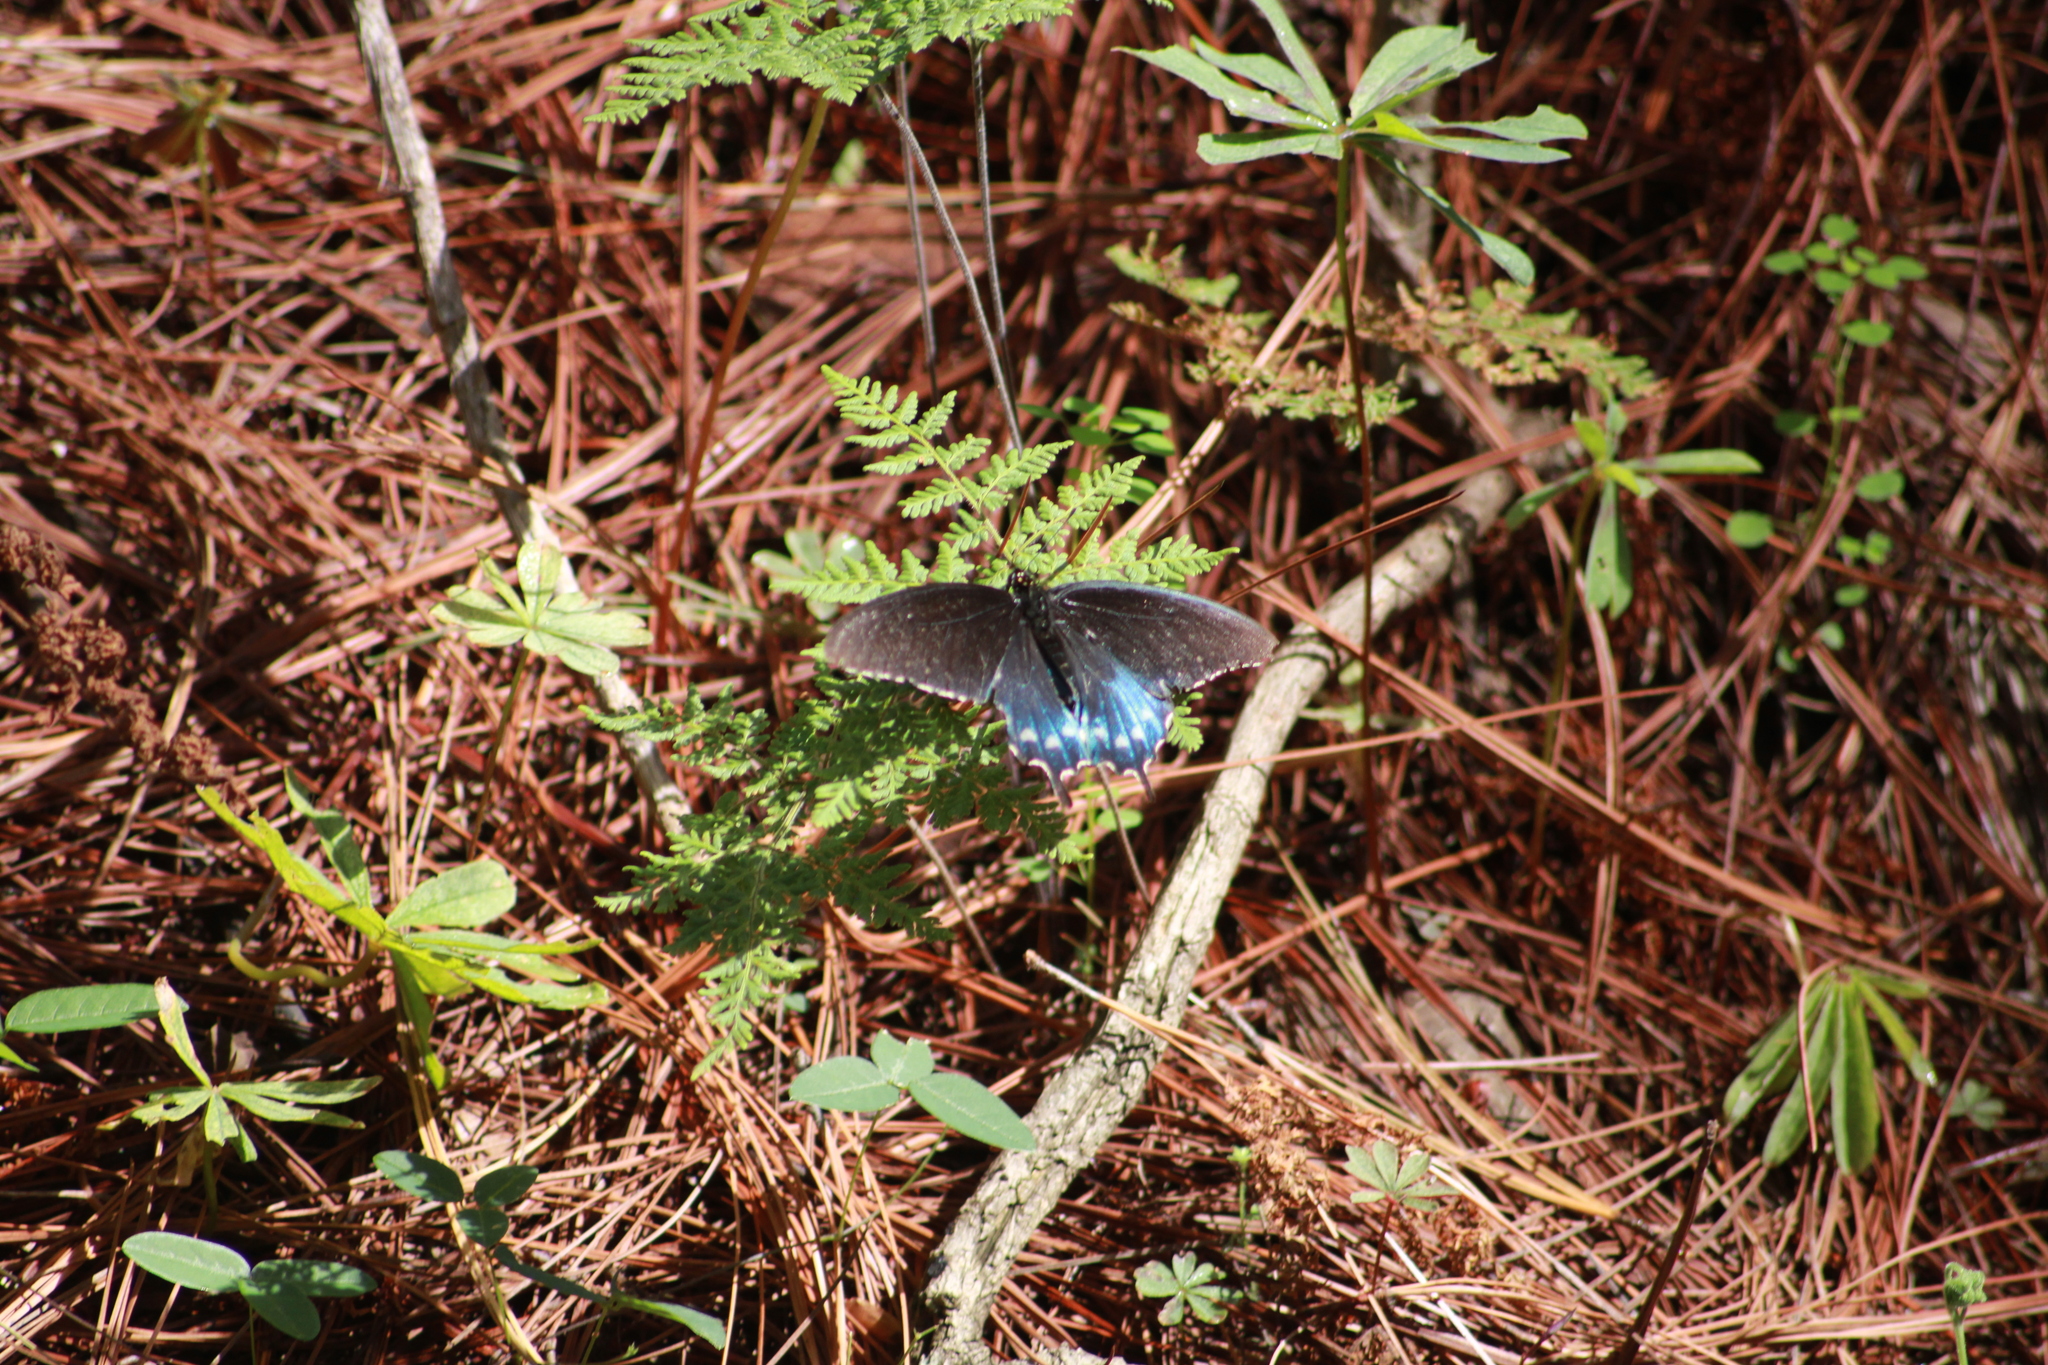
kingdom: Animalia
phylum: Arthropoda
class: Insecta
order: Lepidoptera
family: Papilionidae
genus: Battus
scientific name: Battus philenor
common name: Pipevine swallowtail
